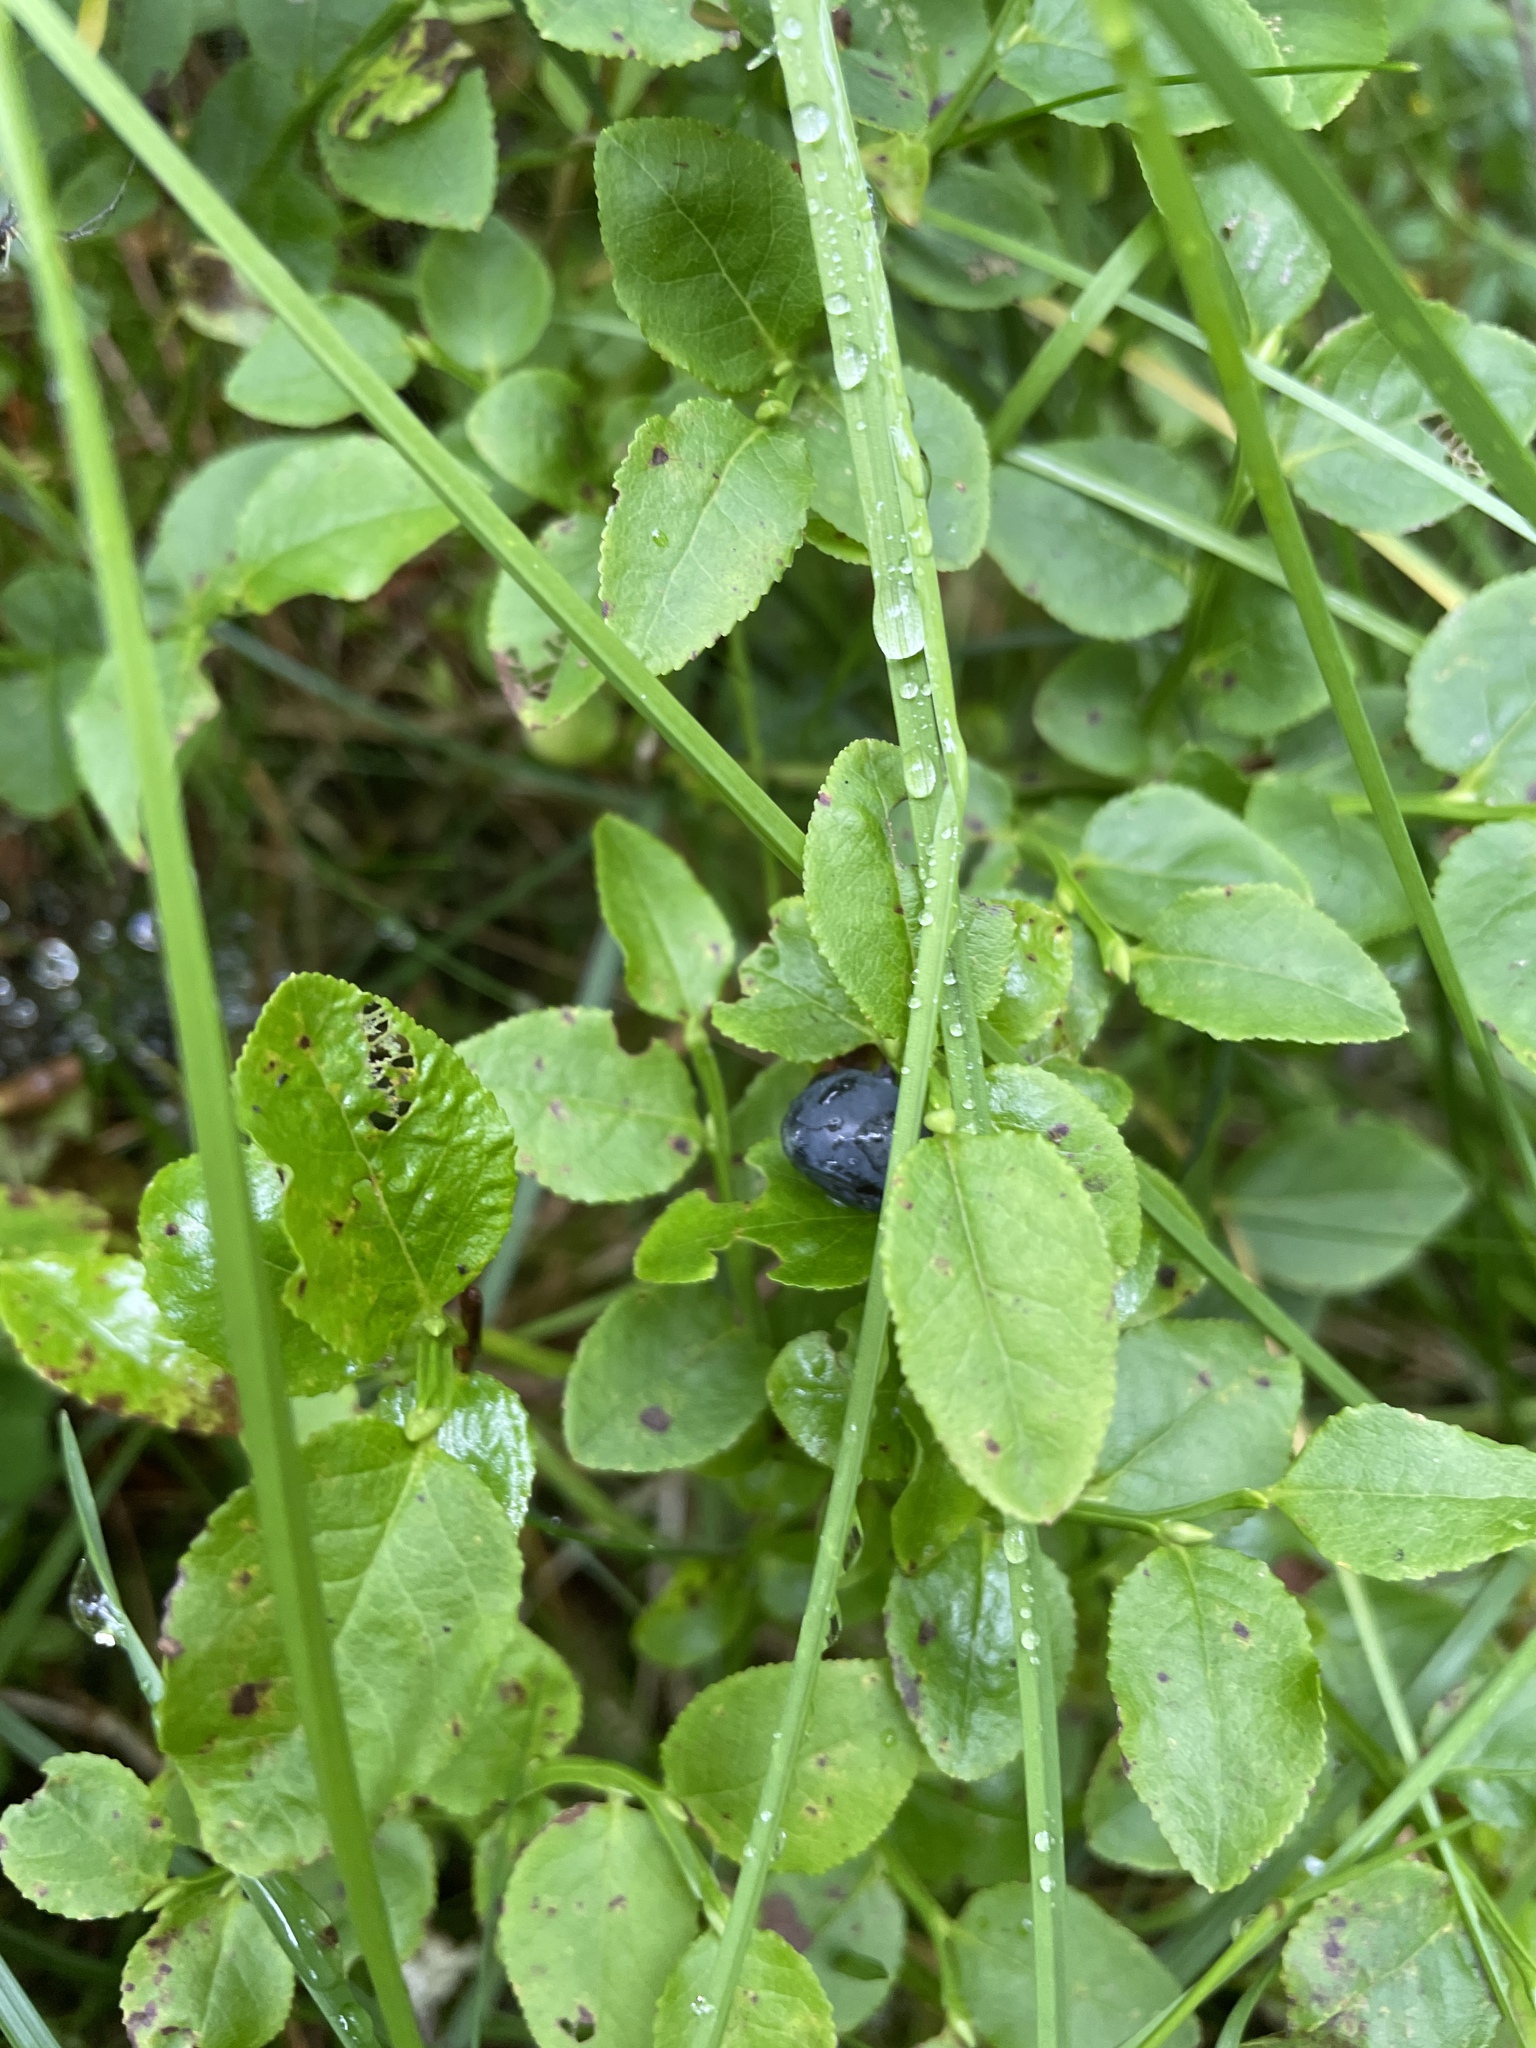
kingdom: Plantae
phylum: Tracheophyta
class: Magnoliopsida
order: Ericales
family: Ericaceae
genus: Vaccinium
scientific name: Vaccinium myrtillus
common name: Bilberry
